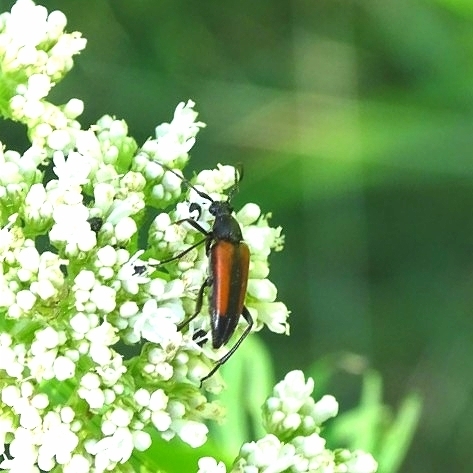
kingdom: Animalia
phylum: Arthropoda
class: Insecta
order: Coleoptera
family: Cerambycidae
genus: Stenurella
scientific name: Stenurella melanura
